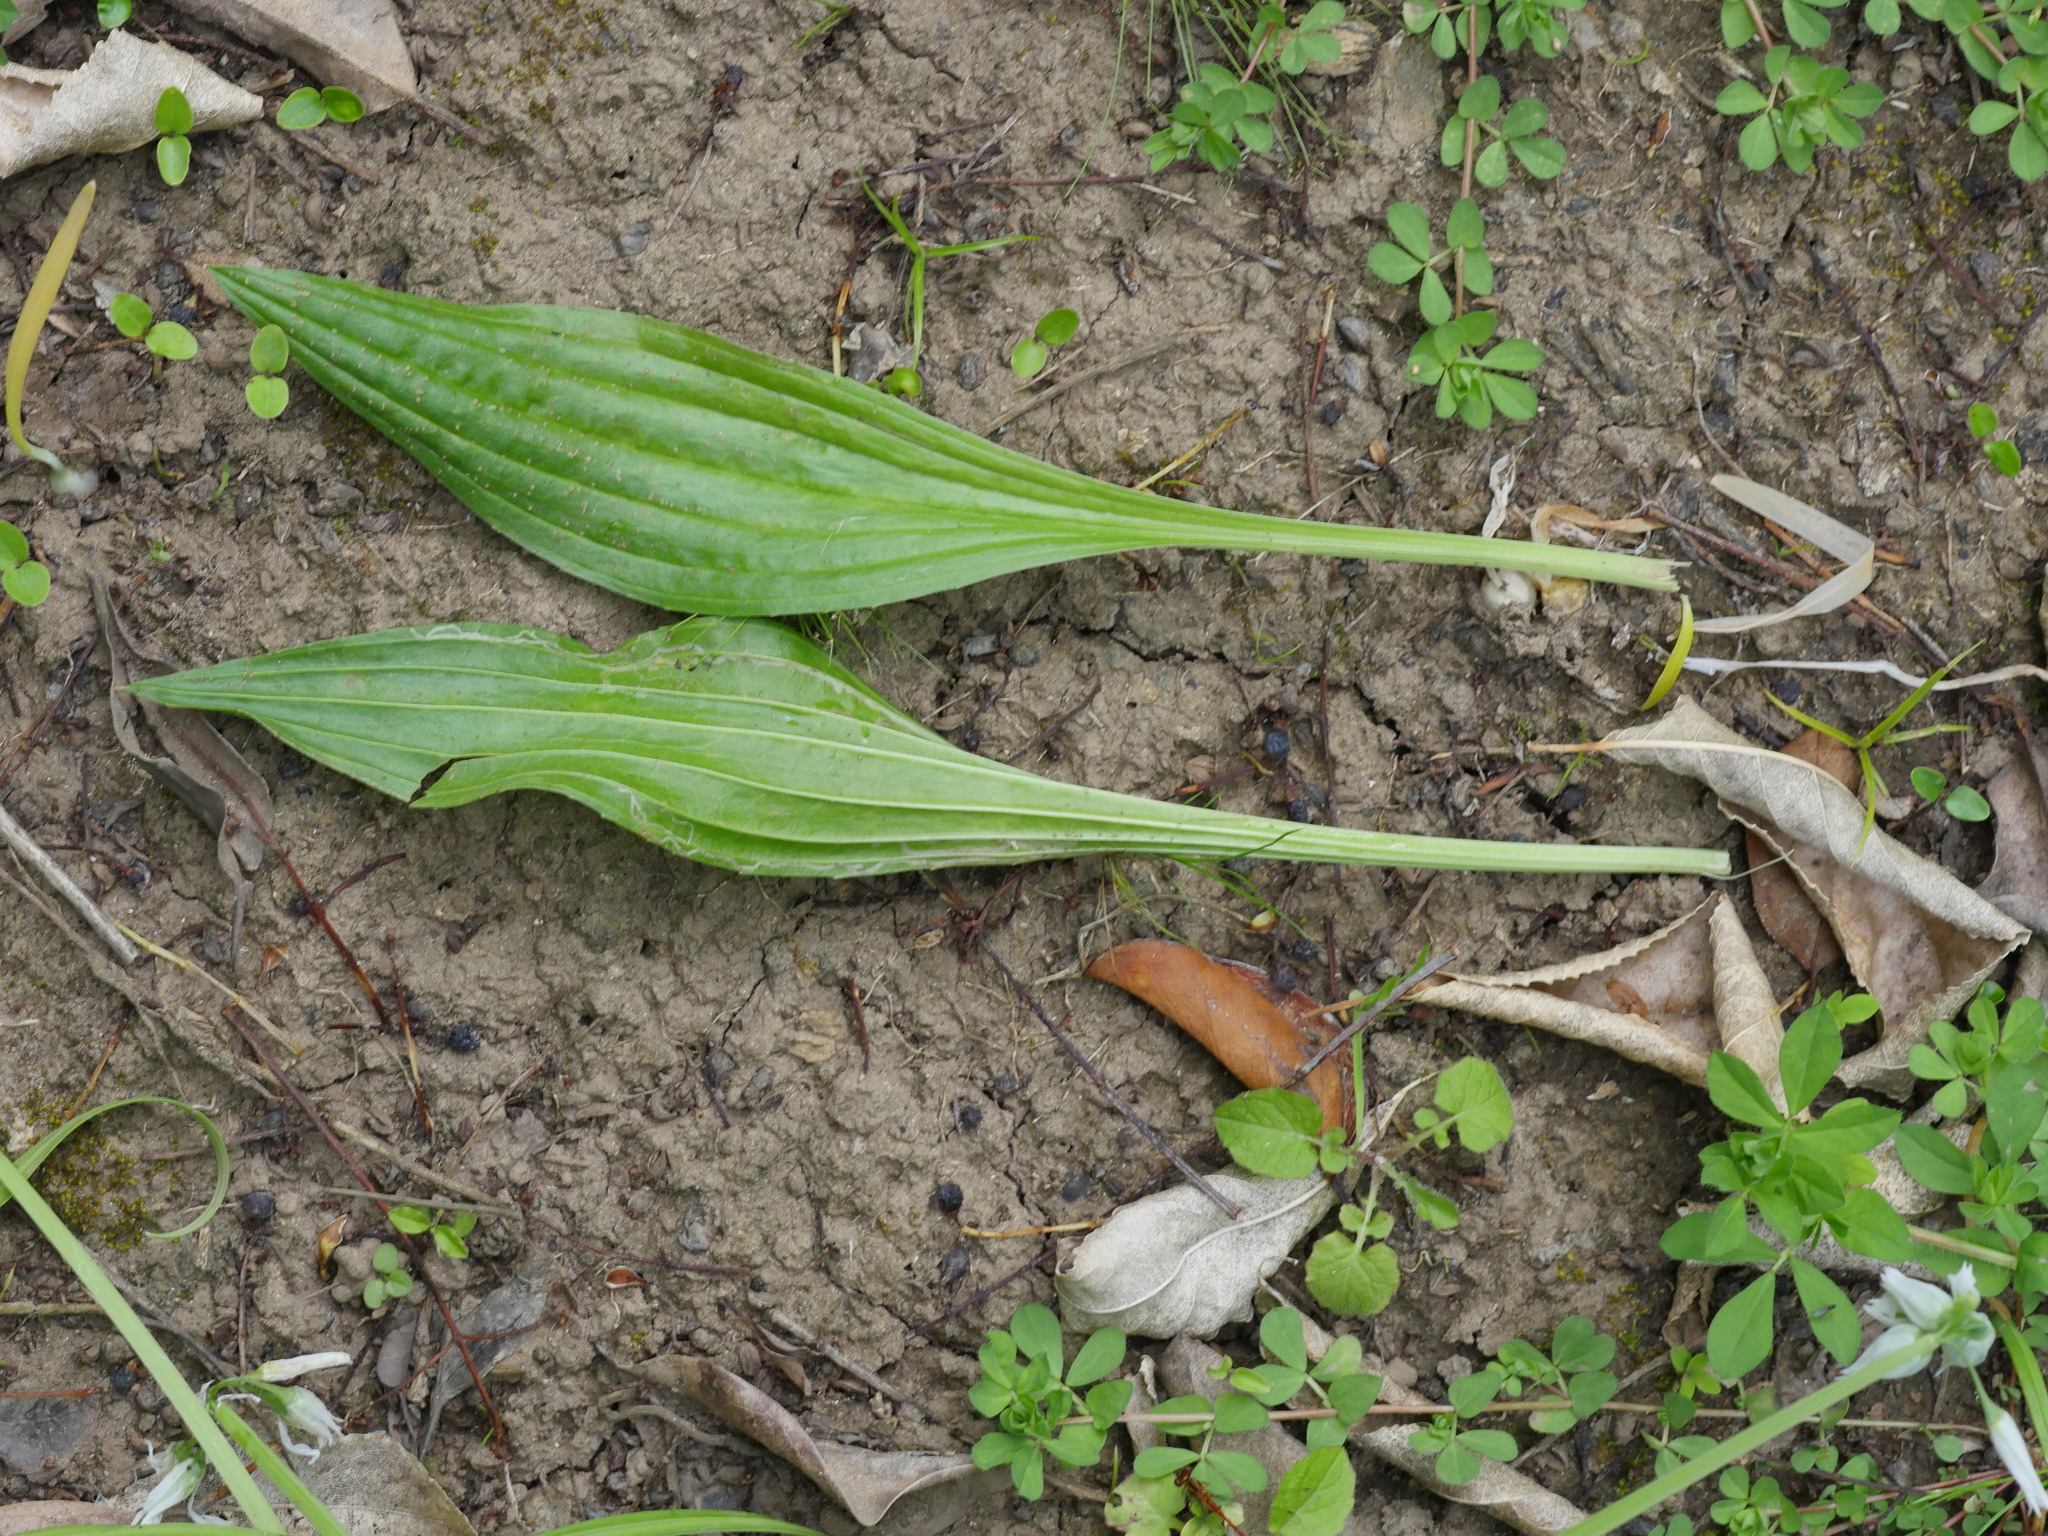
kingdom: Plantae
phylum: Tracheophyta
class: Magnoliopsida
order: Lamiales
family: Plantaginaceae
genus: Plantago
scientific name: Plantago lanceolata
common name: Ribwort plantain
